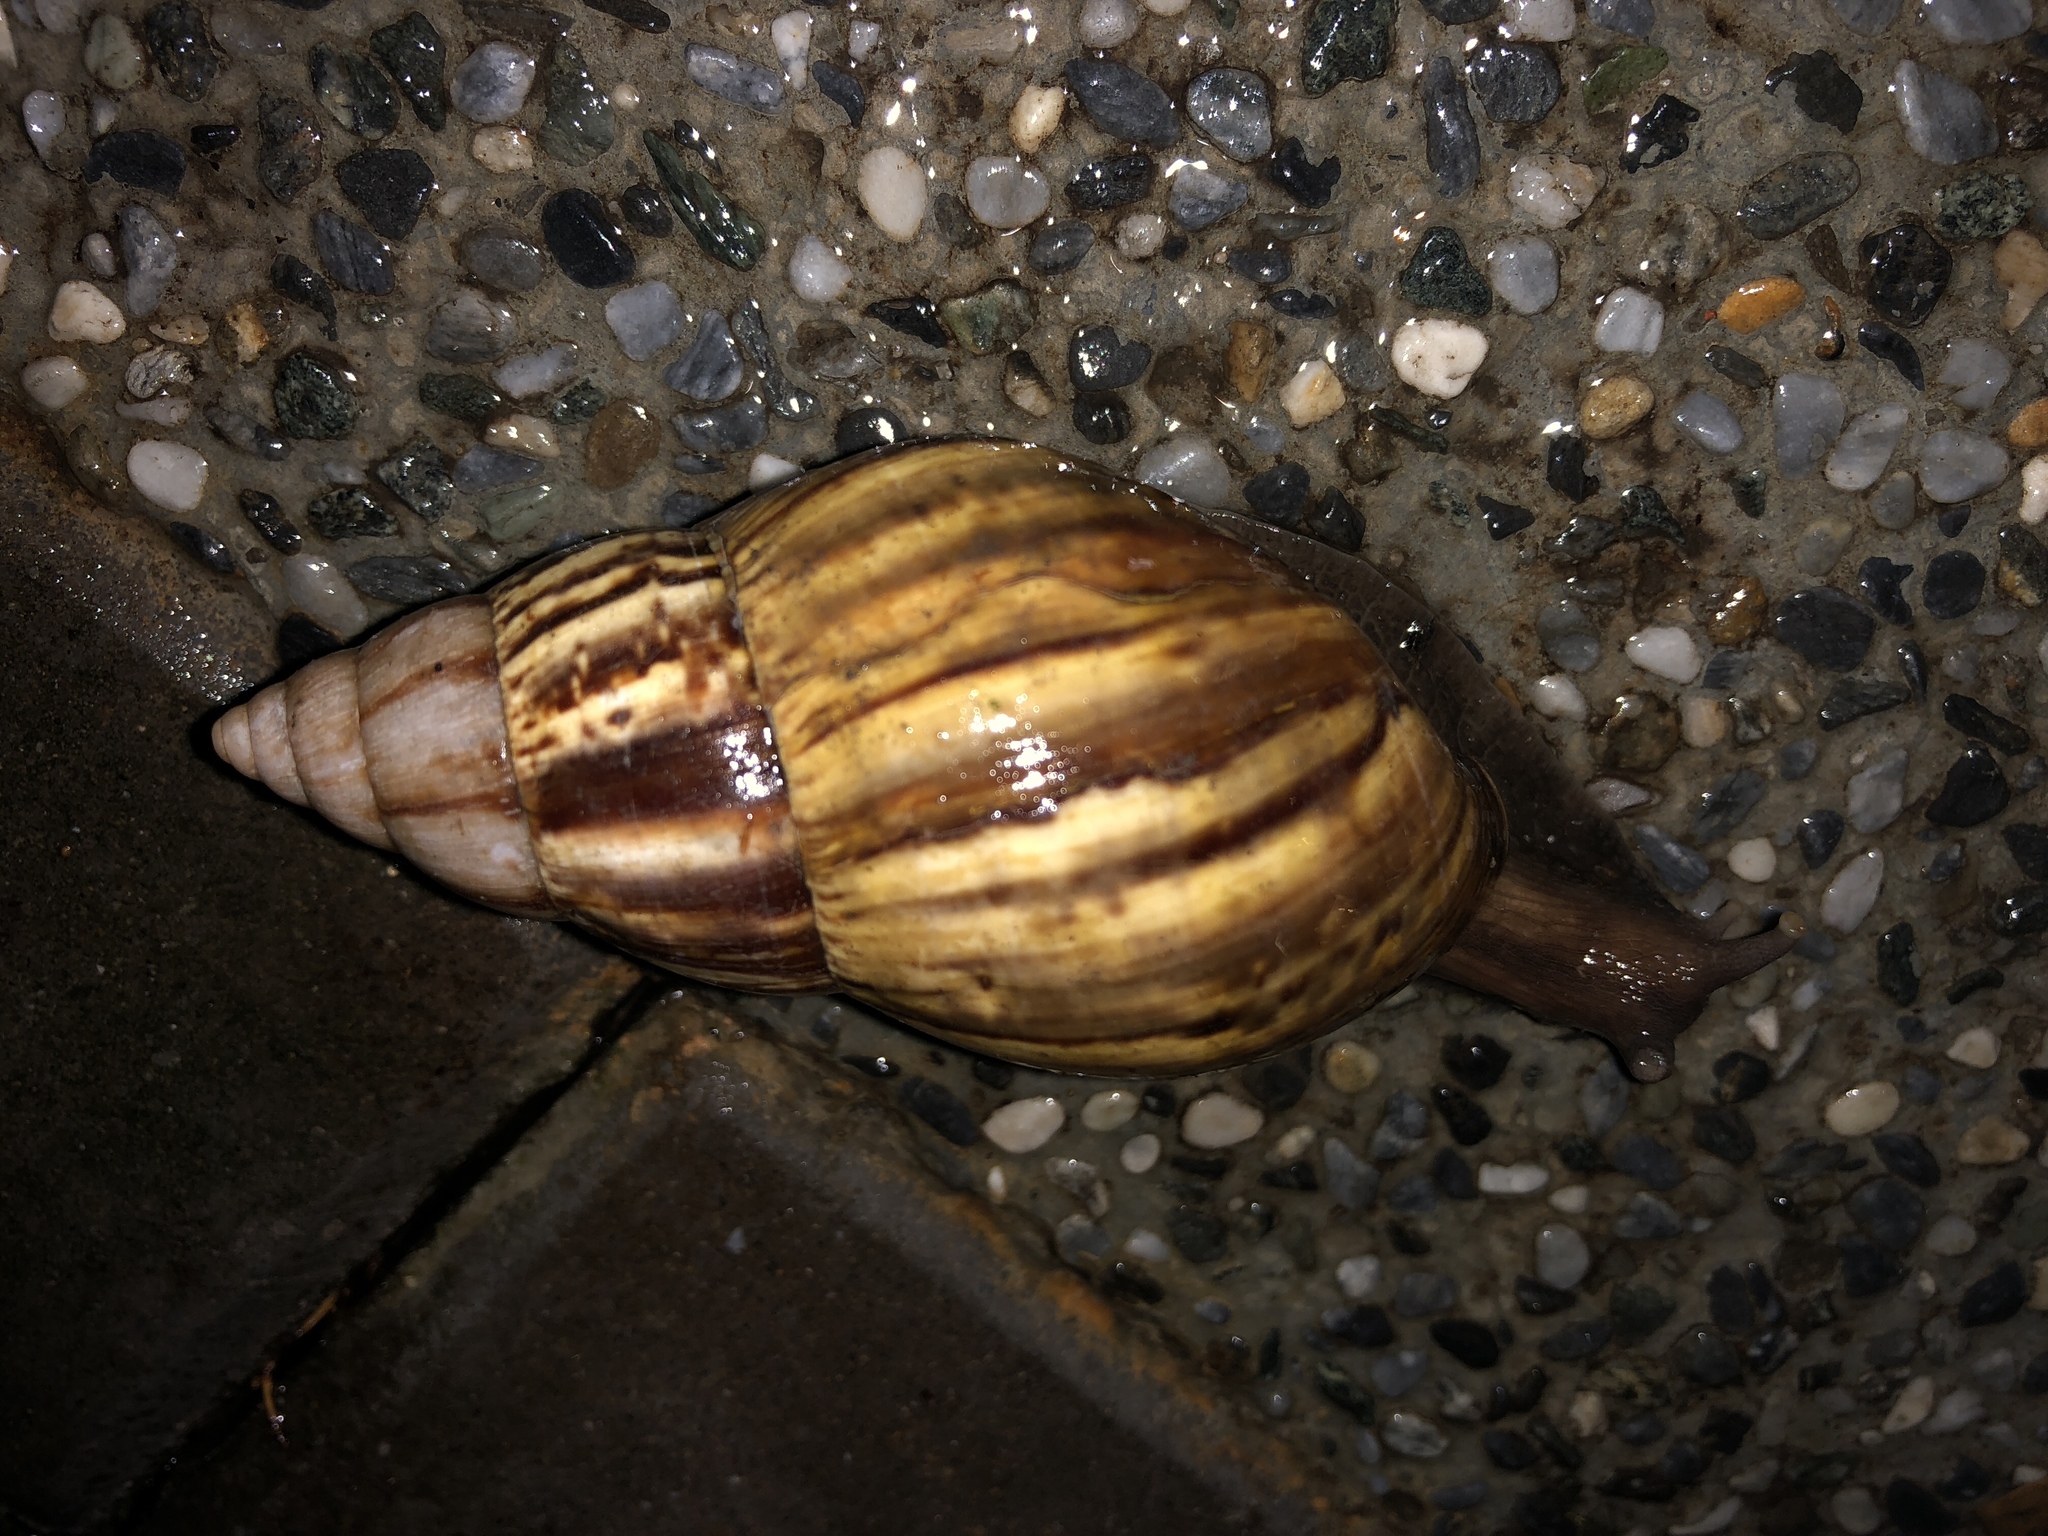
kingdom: Animalia
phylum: Mollusca
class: Gastropoda
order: Stylommatophora
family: Achatinidae
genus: Lissachatina
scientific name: Lissachatina fulica
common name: Giant african snail
